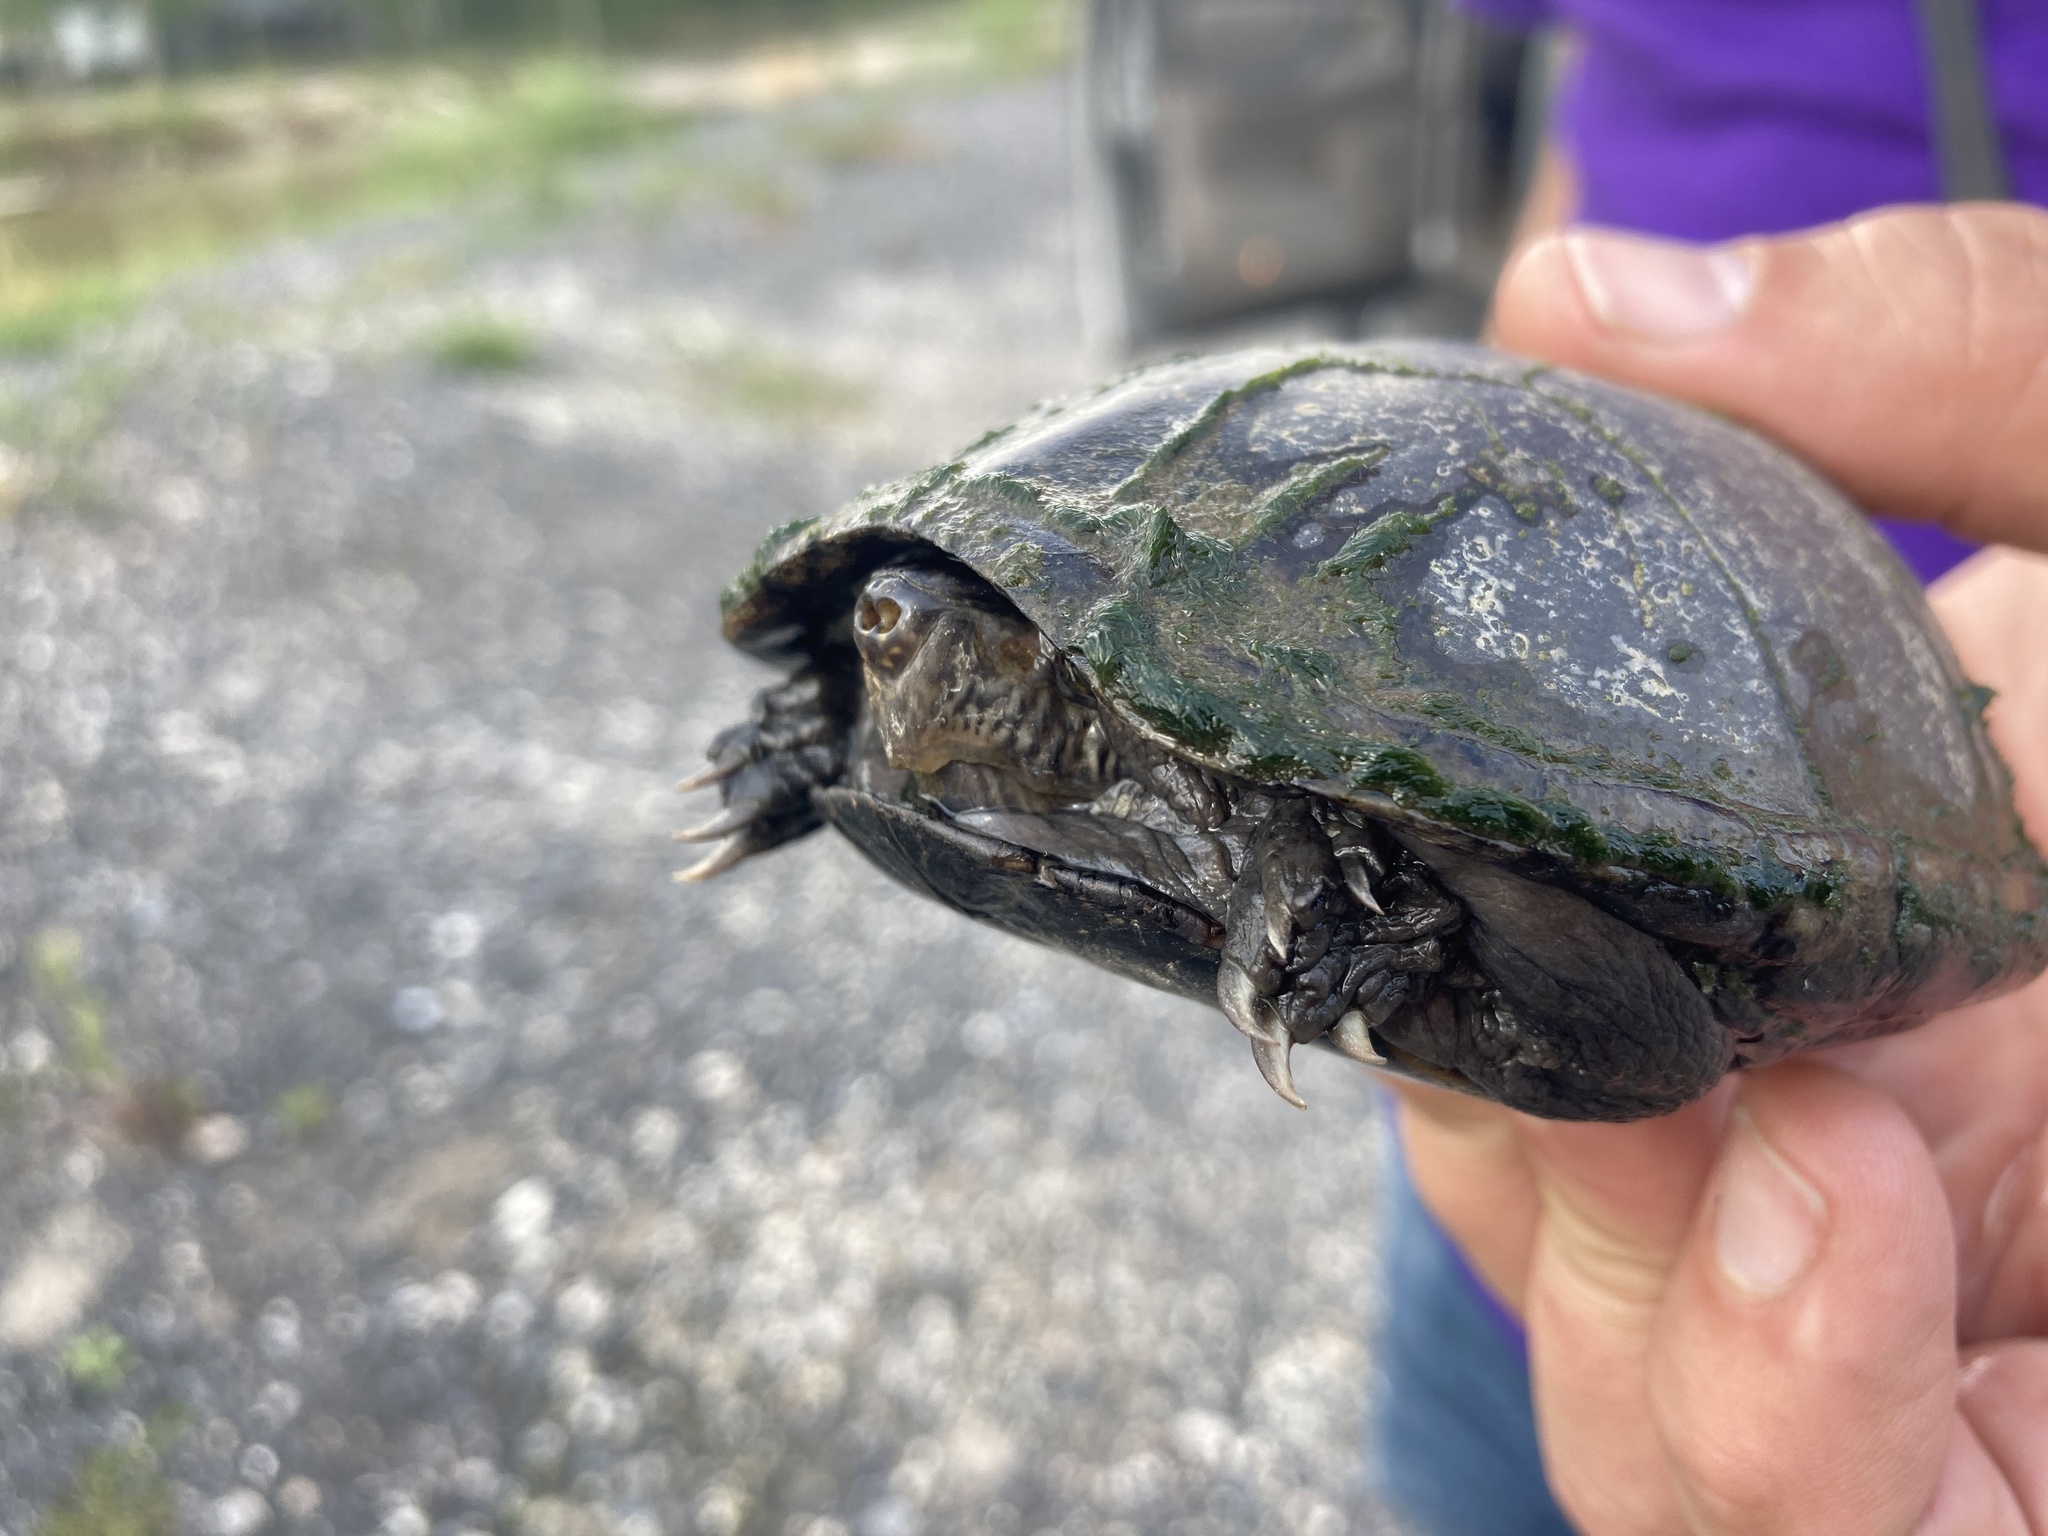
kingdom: Animalia
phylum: Chordata
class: Testudines
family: Kinosternidae
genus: Kinosternon
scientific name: Kinosternon subrubrum
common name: Eastern mud turtle
